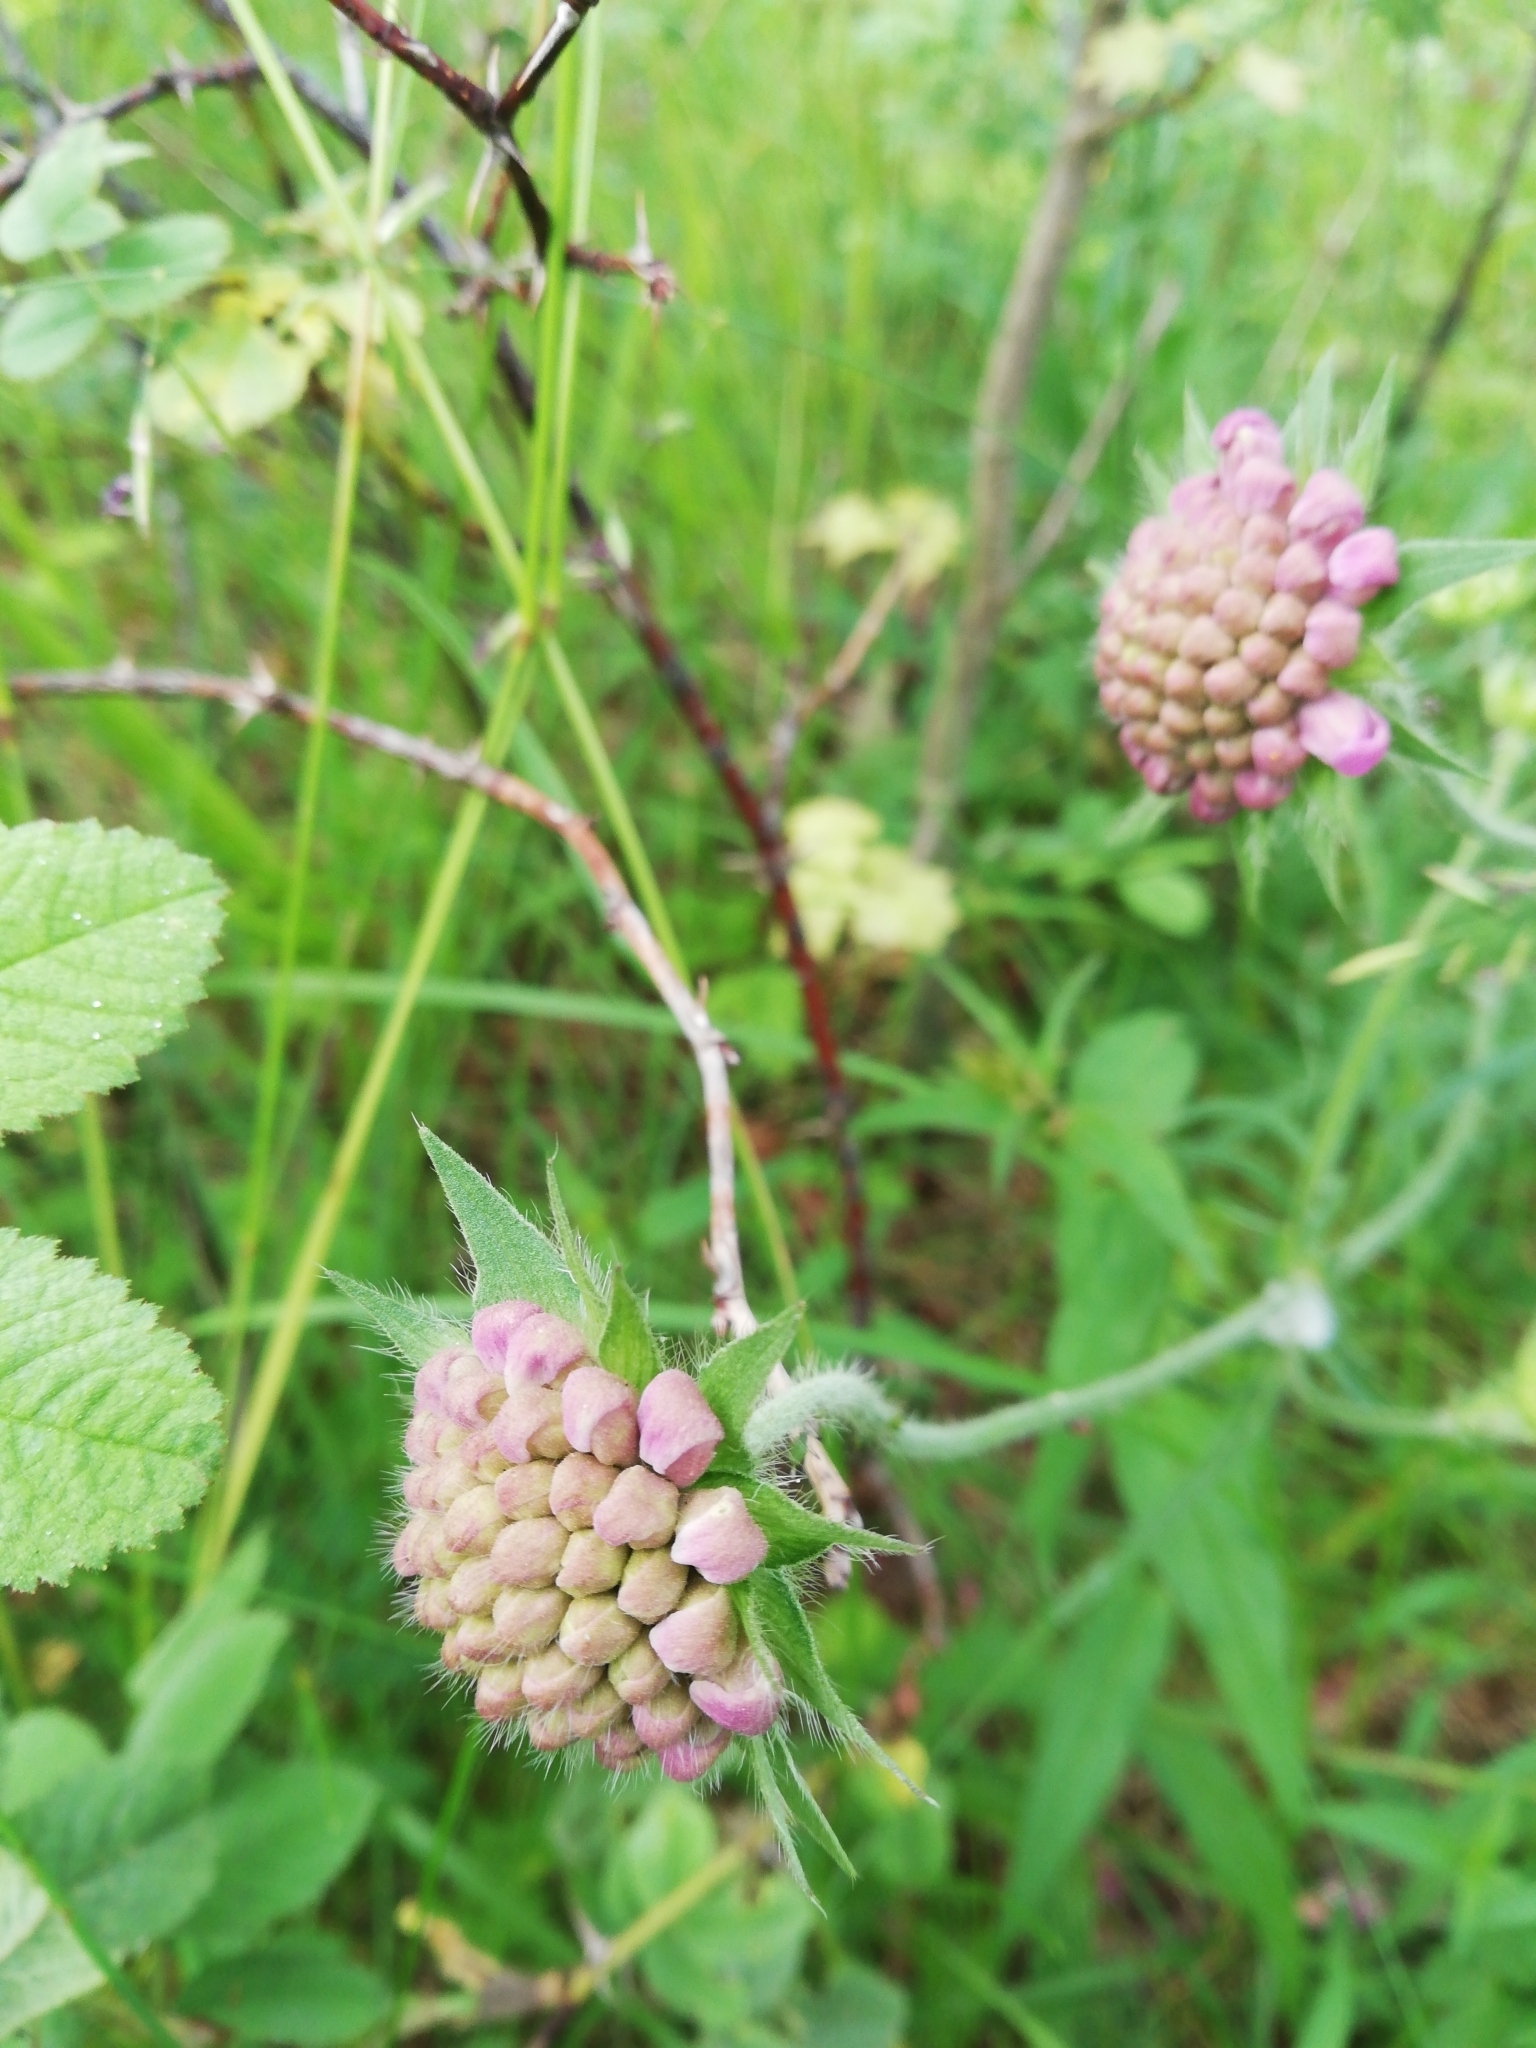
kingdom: Plantae
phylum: Tracheophyta
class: Magnoliopsida
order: Dipsacales
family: Caprifoliaceae
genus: Knautia
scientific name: Knautia arvensis
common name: Field scabiosa
